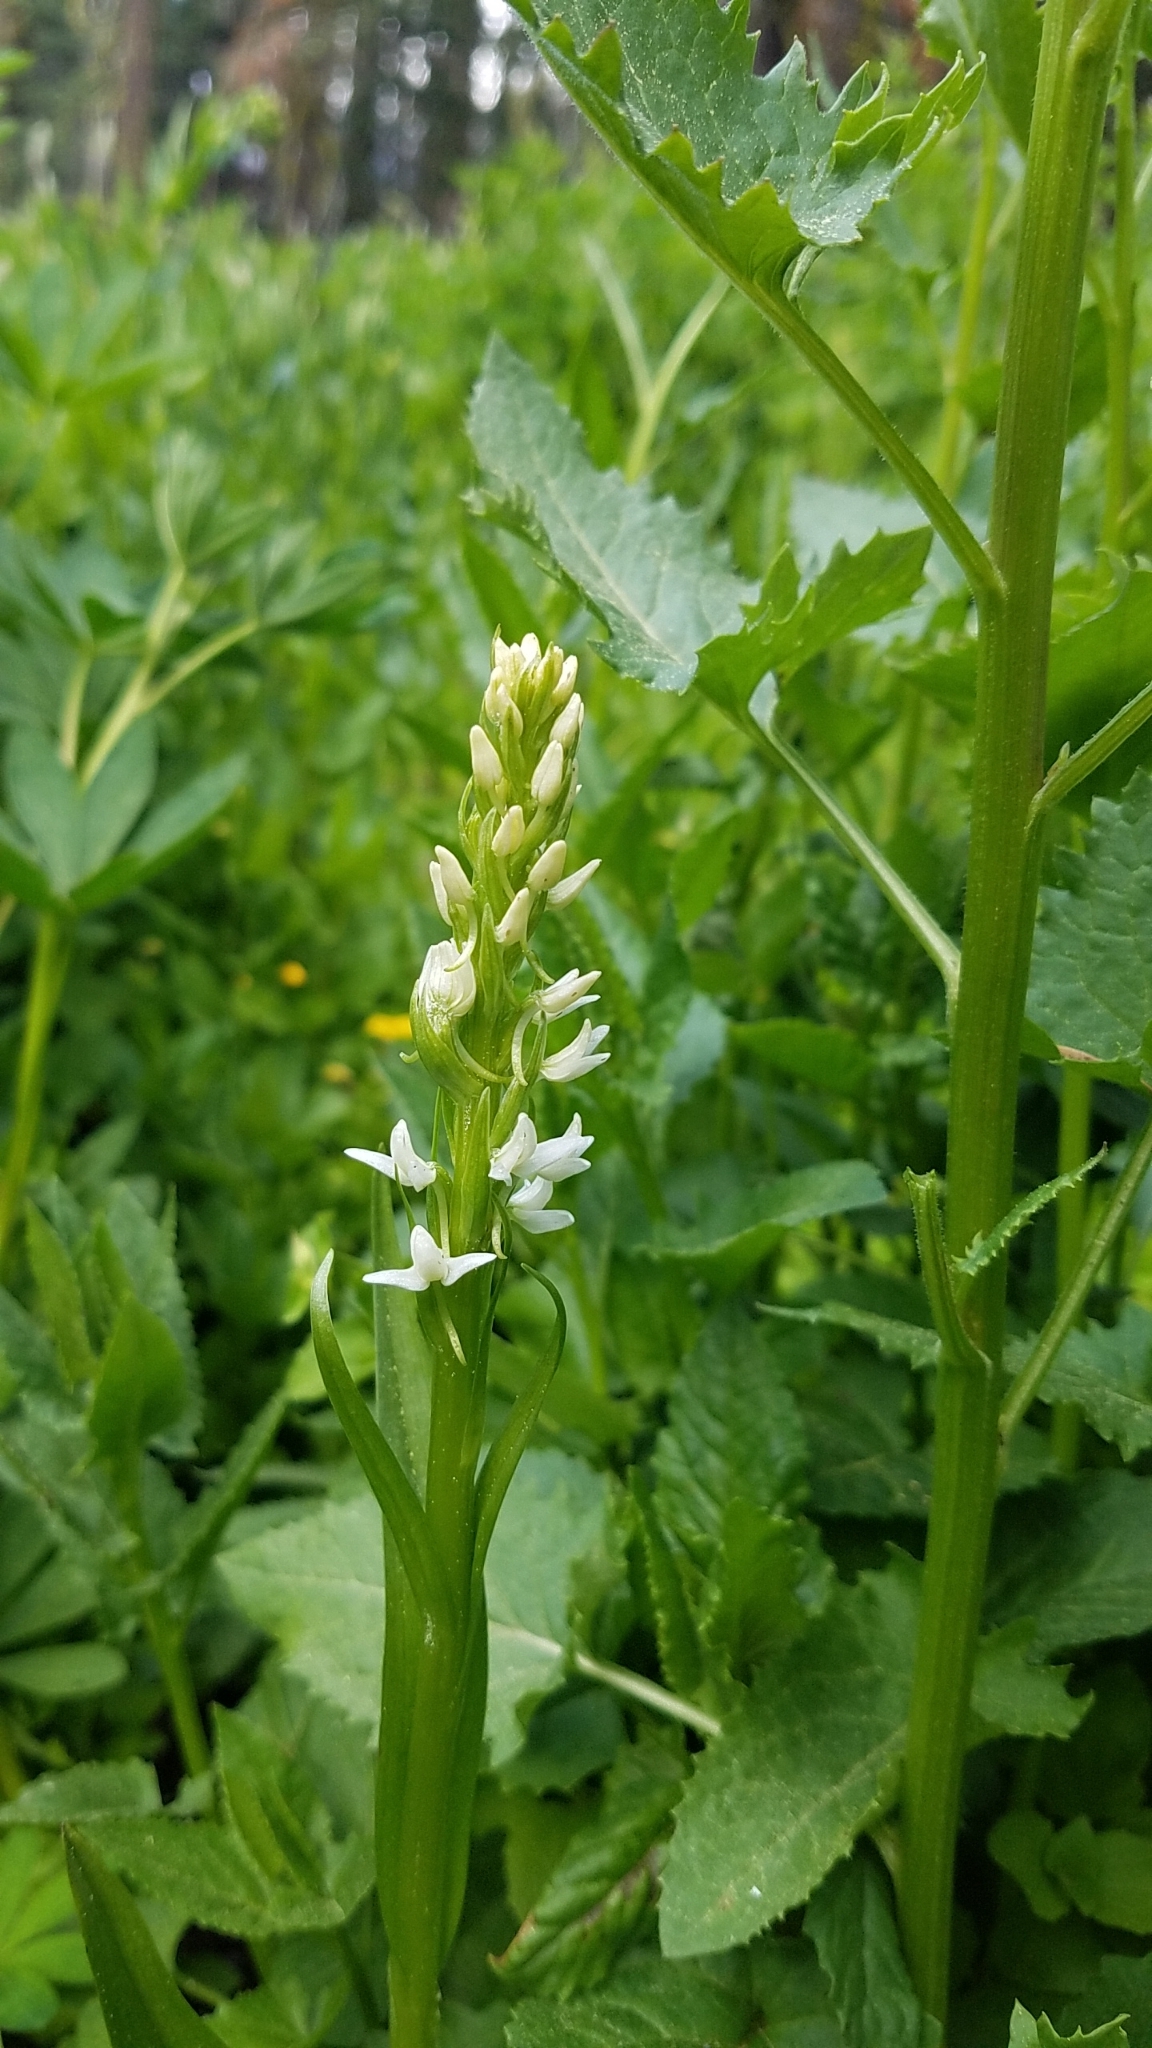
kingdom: Plantae
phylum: Tracheophyta
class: Liliopsida
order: Asparagales
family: Orchidaceae
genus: Platanthera
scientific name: Platanthera dilatata
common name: Bog candles
